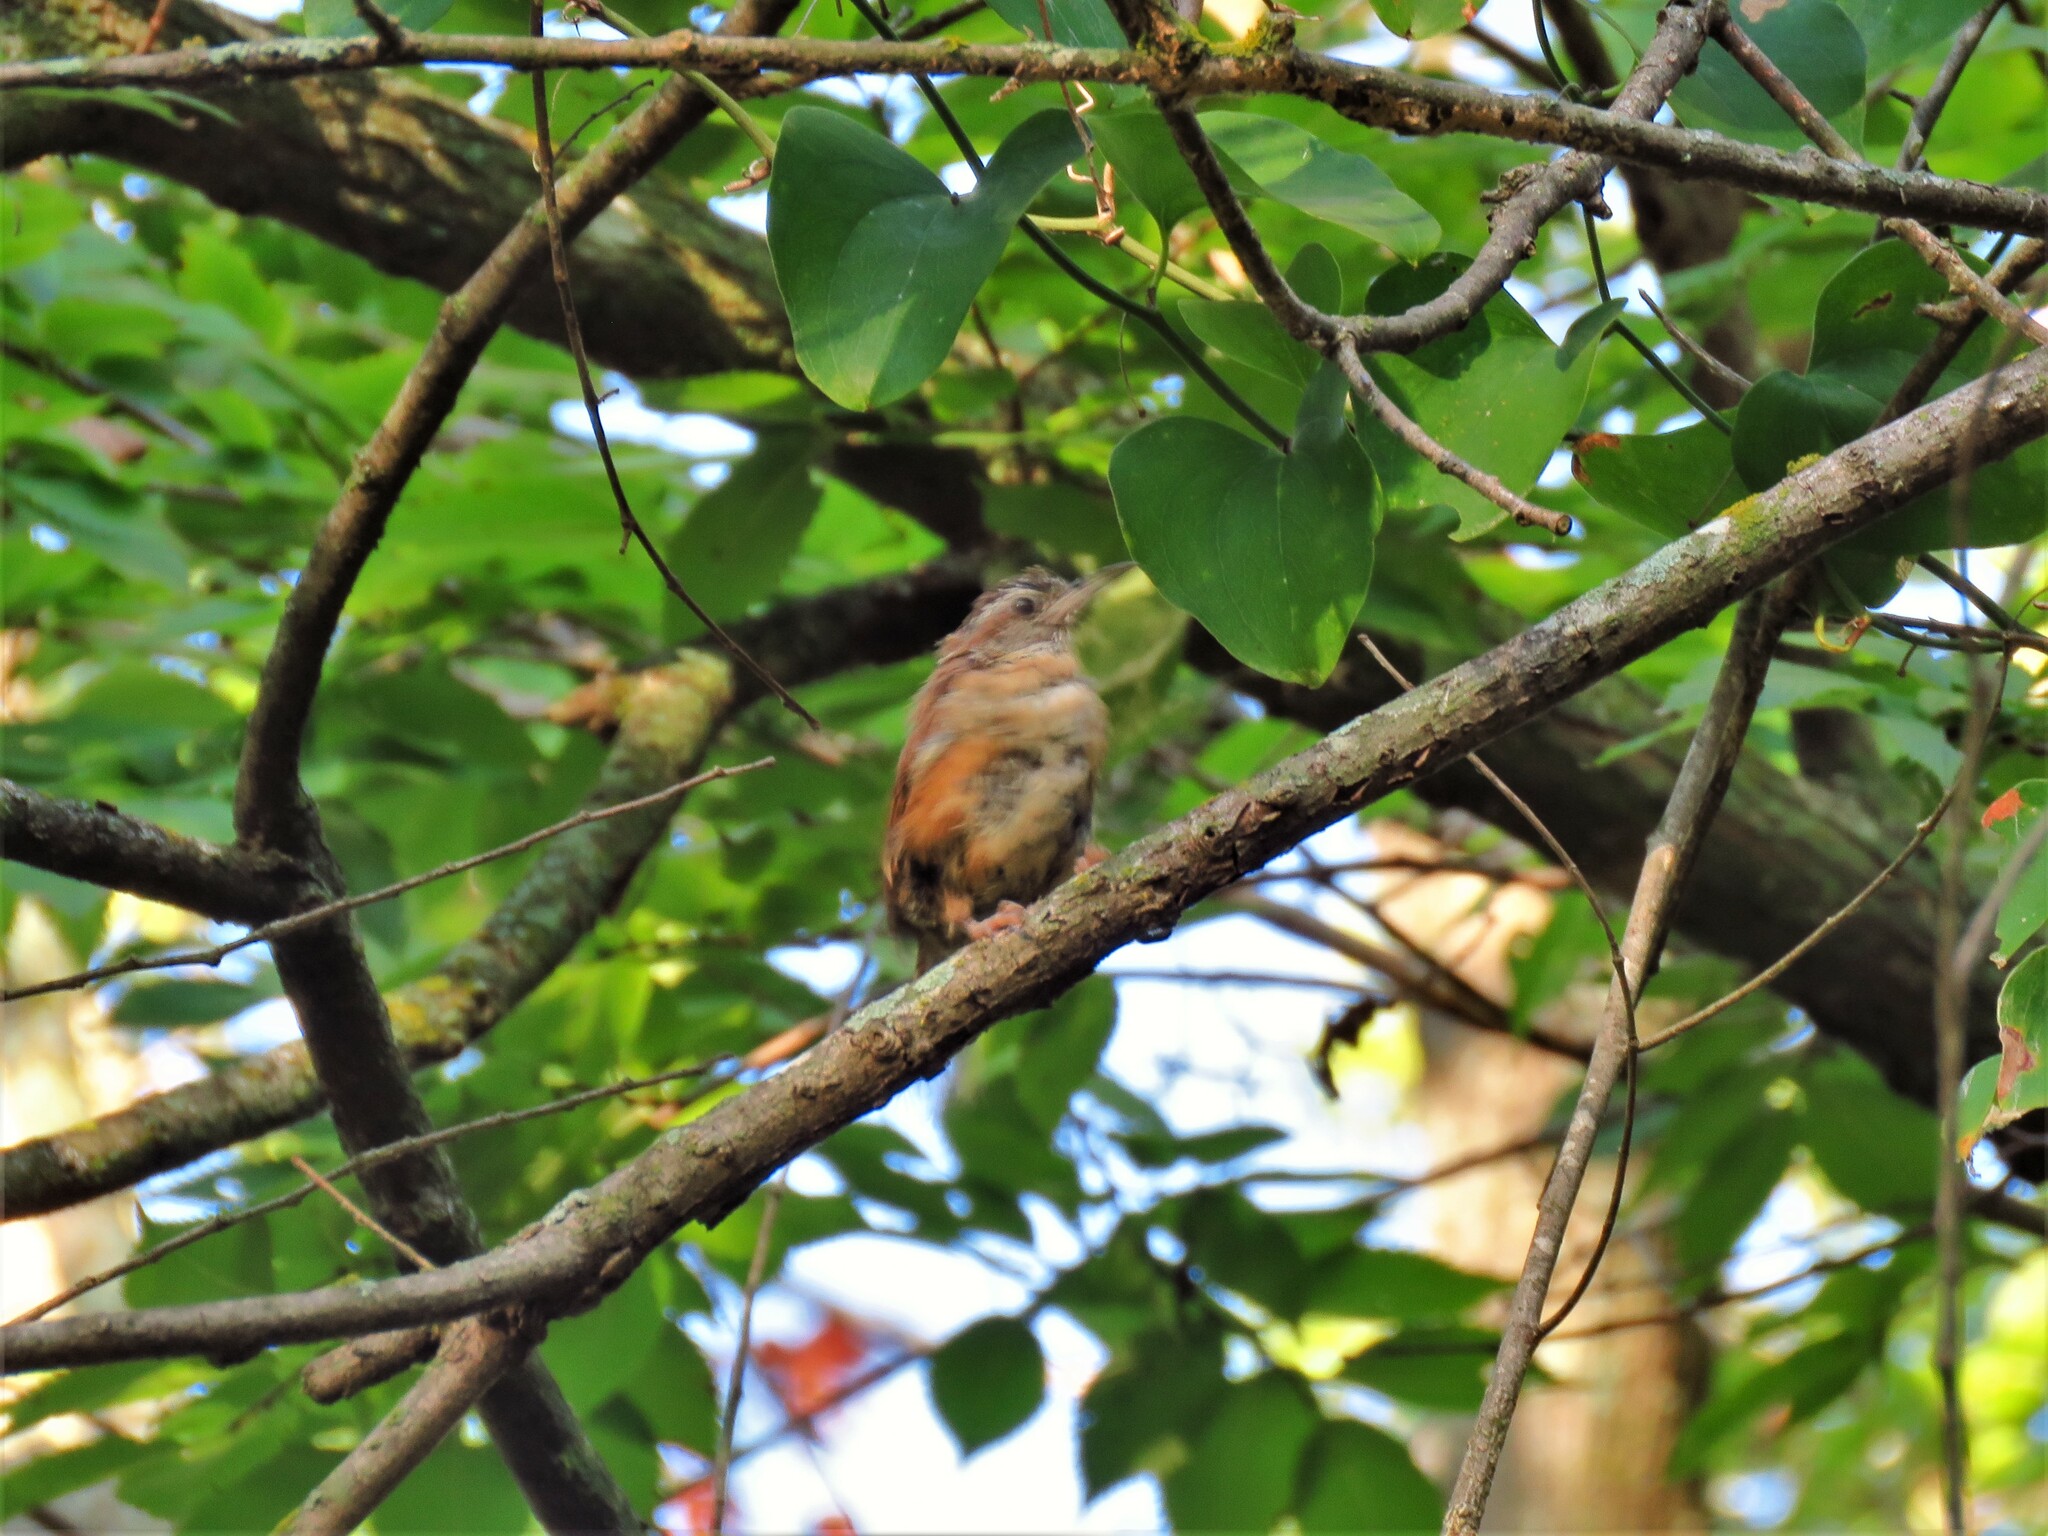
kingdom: Animalia
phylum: Chordata
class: Aves
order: Passeriformes
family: Troglodytidae
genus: Thryothorus
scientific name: Thryothorus ludovicianus
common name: Carolina wren
